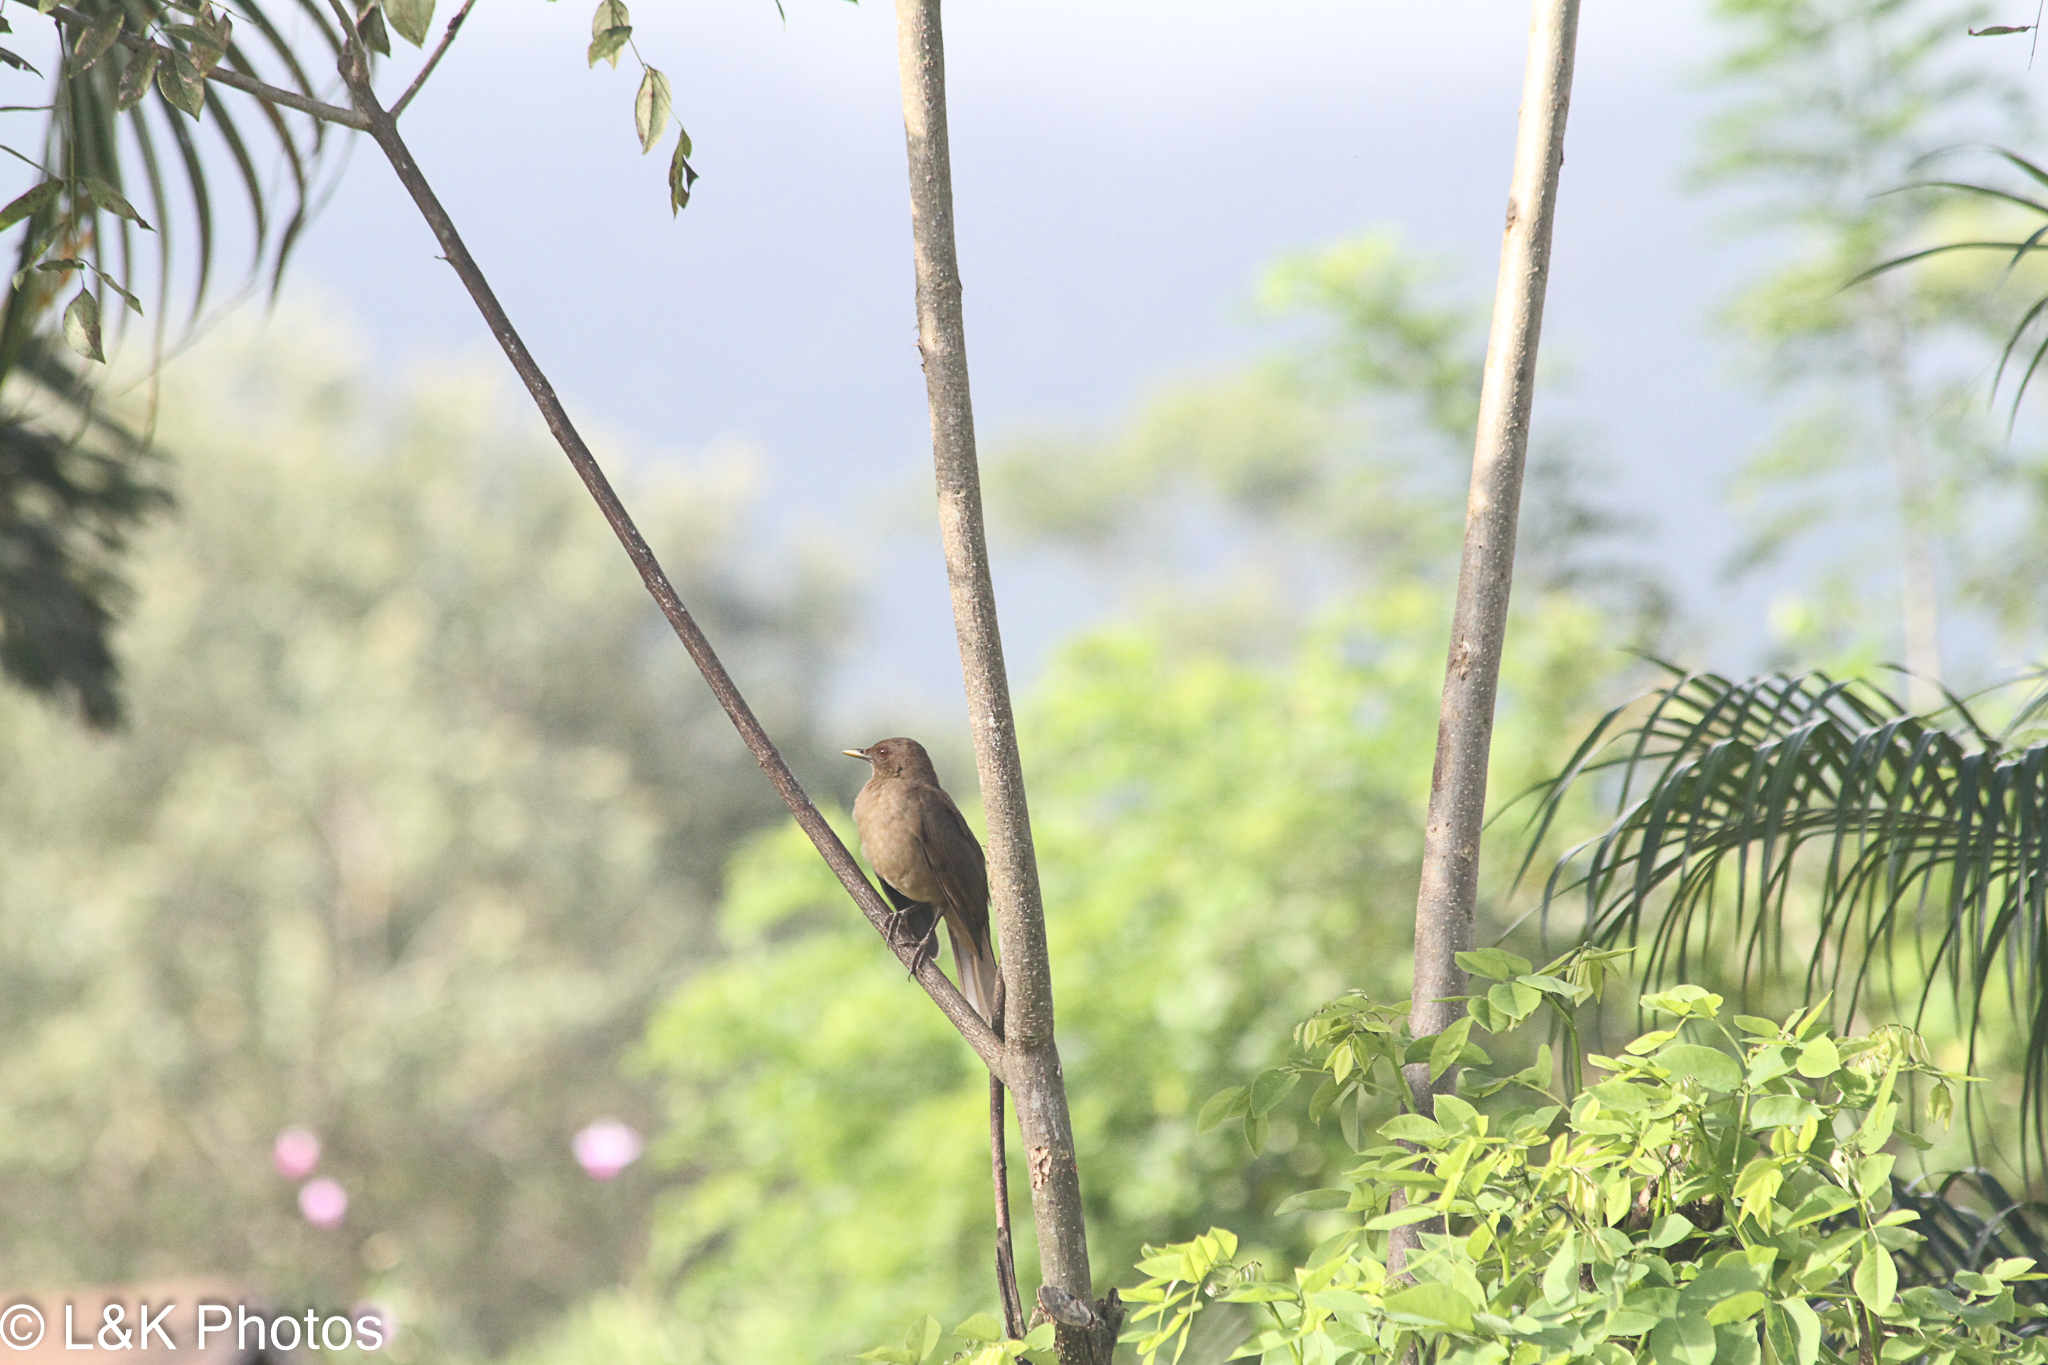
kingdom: Animalia
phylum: Chordata
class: Aves
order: Passeriformes
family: Turdidae
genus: Turdus
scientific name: Turdus grayi
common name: Clay-colored thrush
